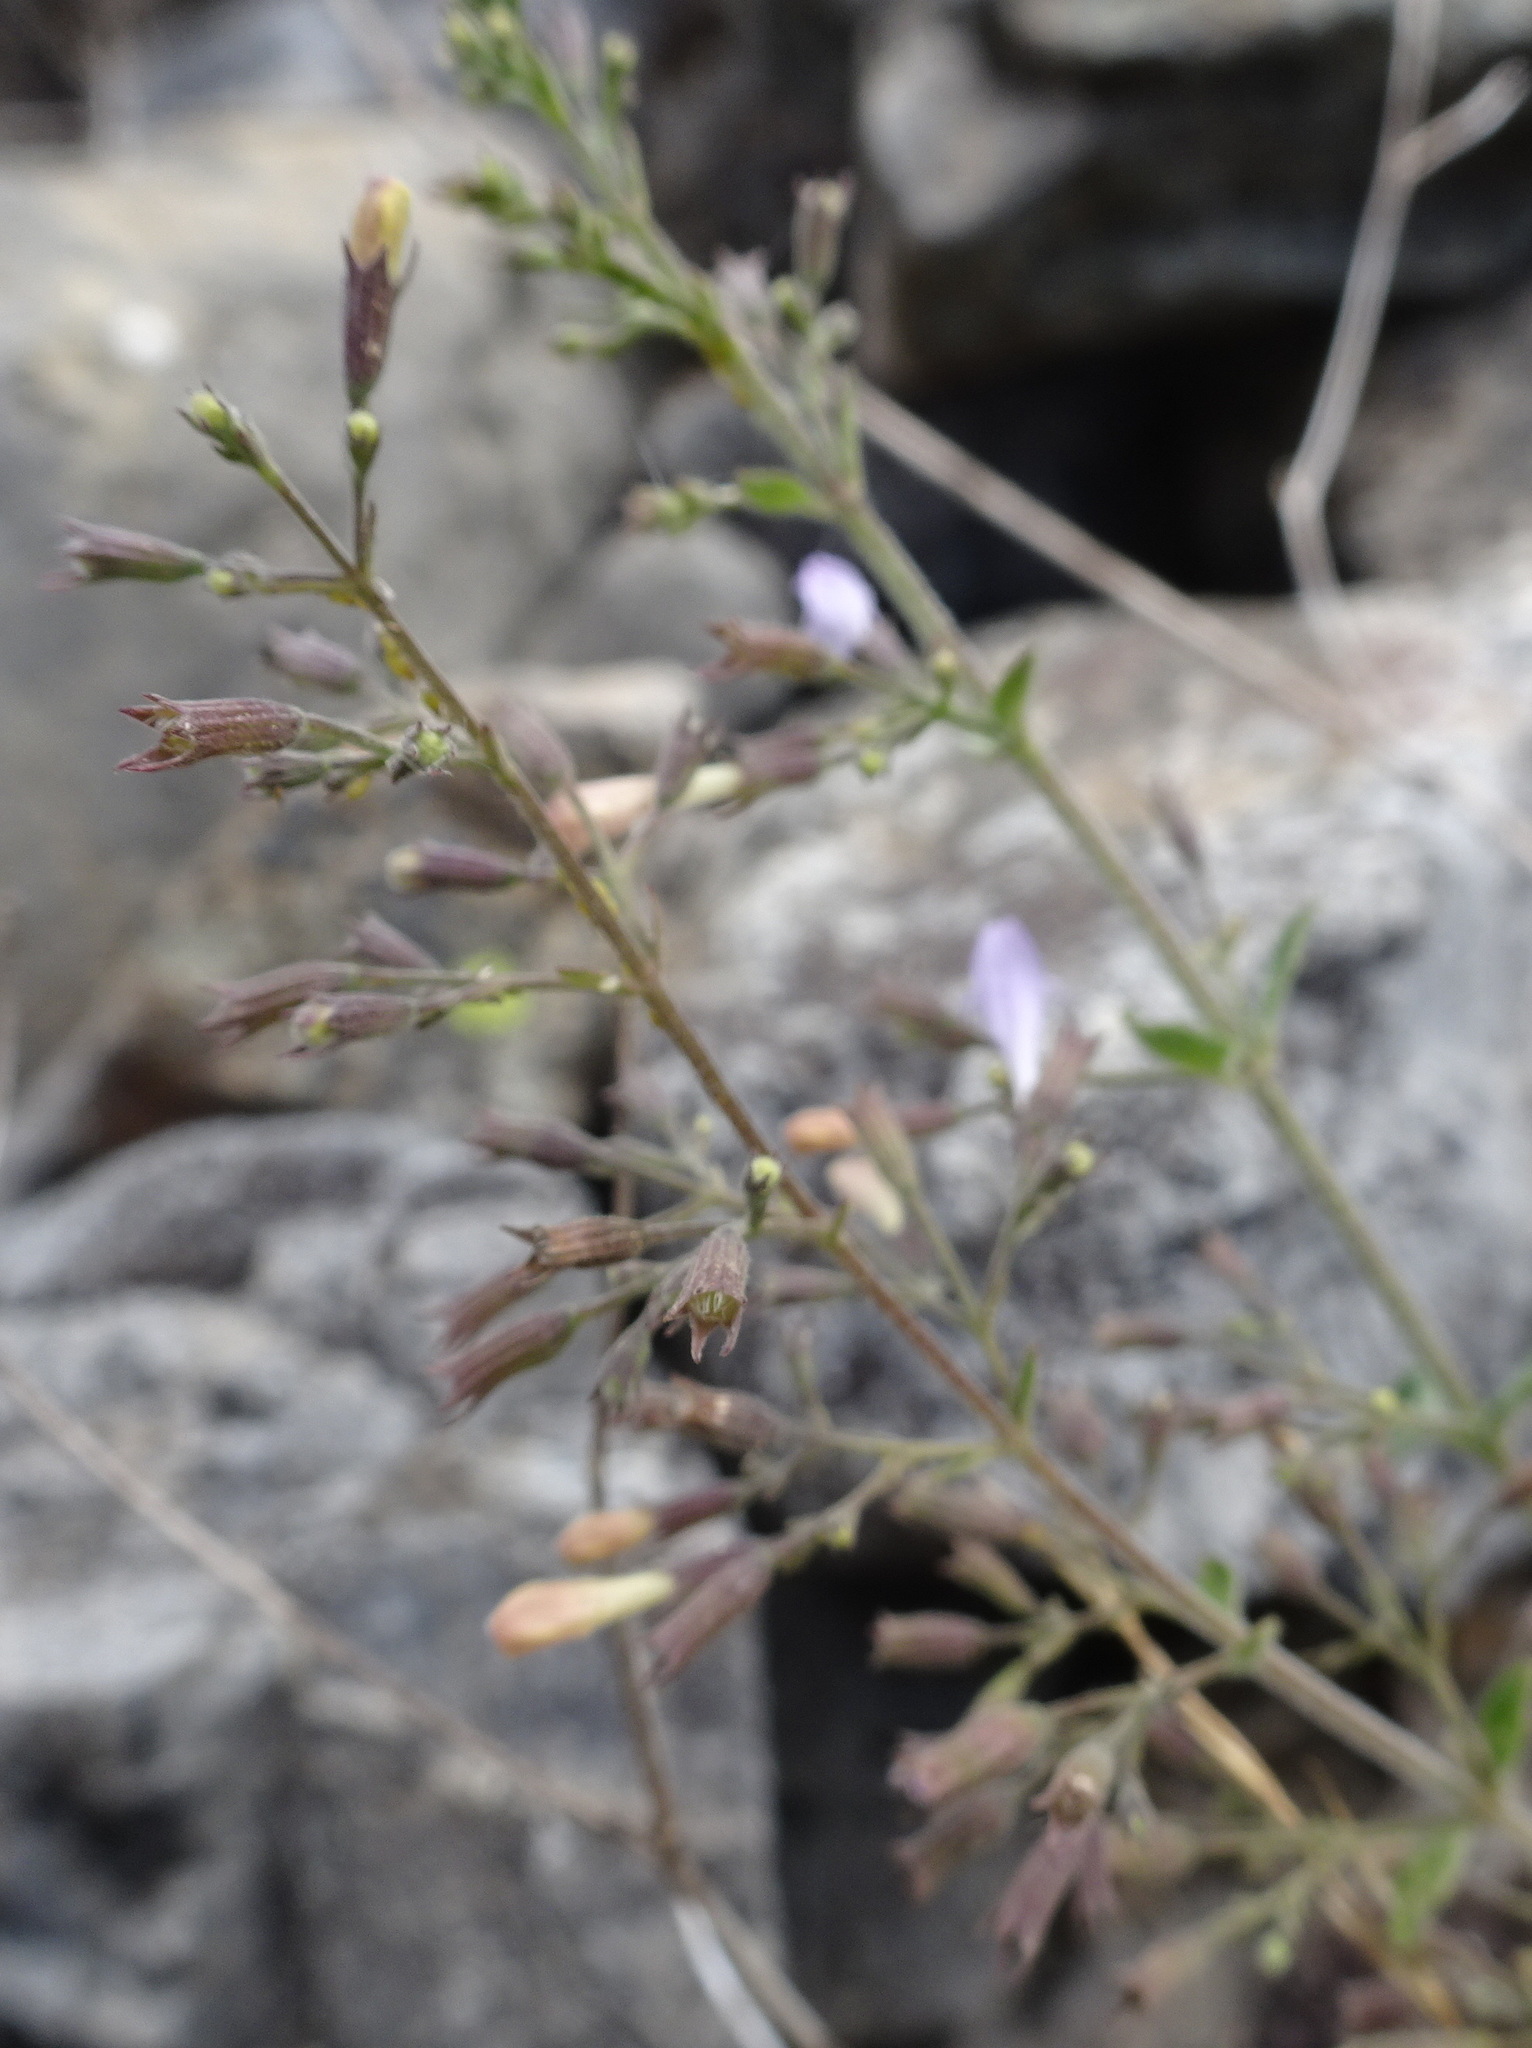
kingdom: Plantae
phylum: Tracheophyta
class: Magnoliopsida
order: Lamiales
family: Lamiaceae
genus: Clinopodium
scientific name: Clinopodium nepeta
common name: Lesser calamint
